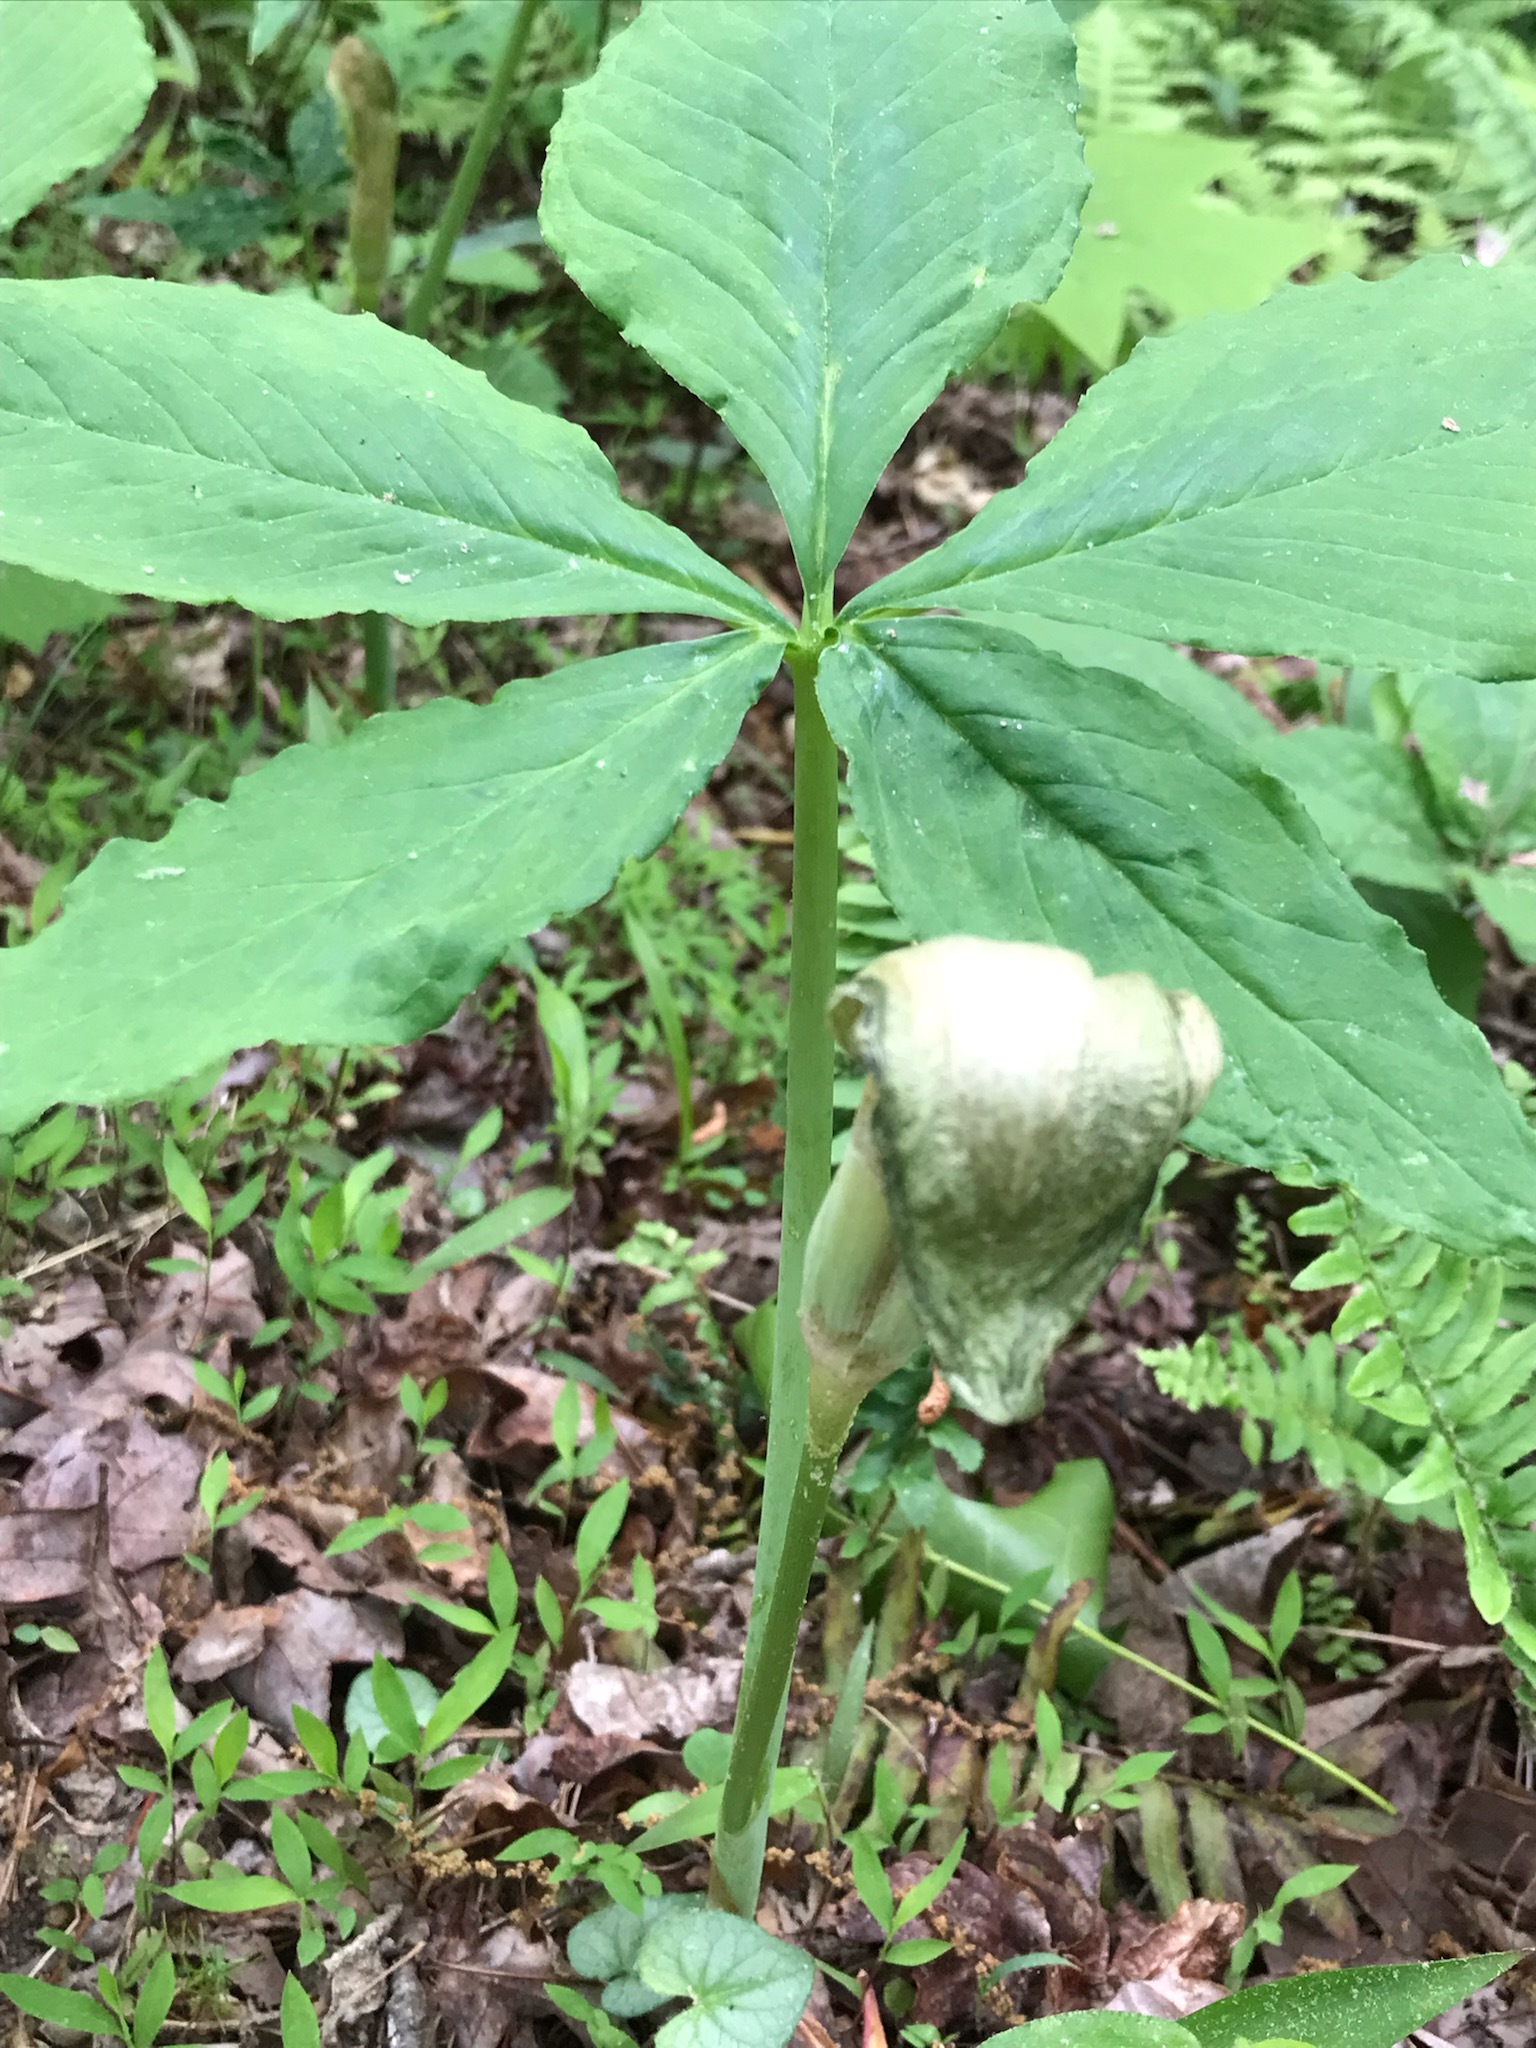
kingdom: Plantae
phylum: Tracheophyta
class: Liliopsida
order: Alismatales
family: Araceae
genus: Arisaema
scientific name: Arisaema quinatum
